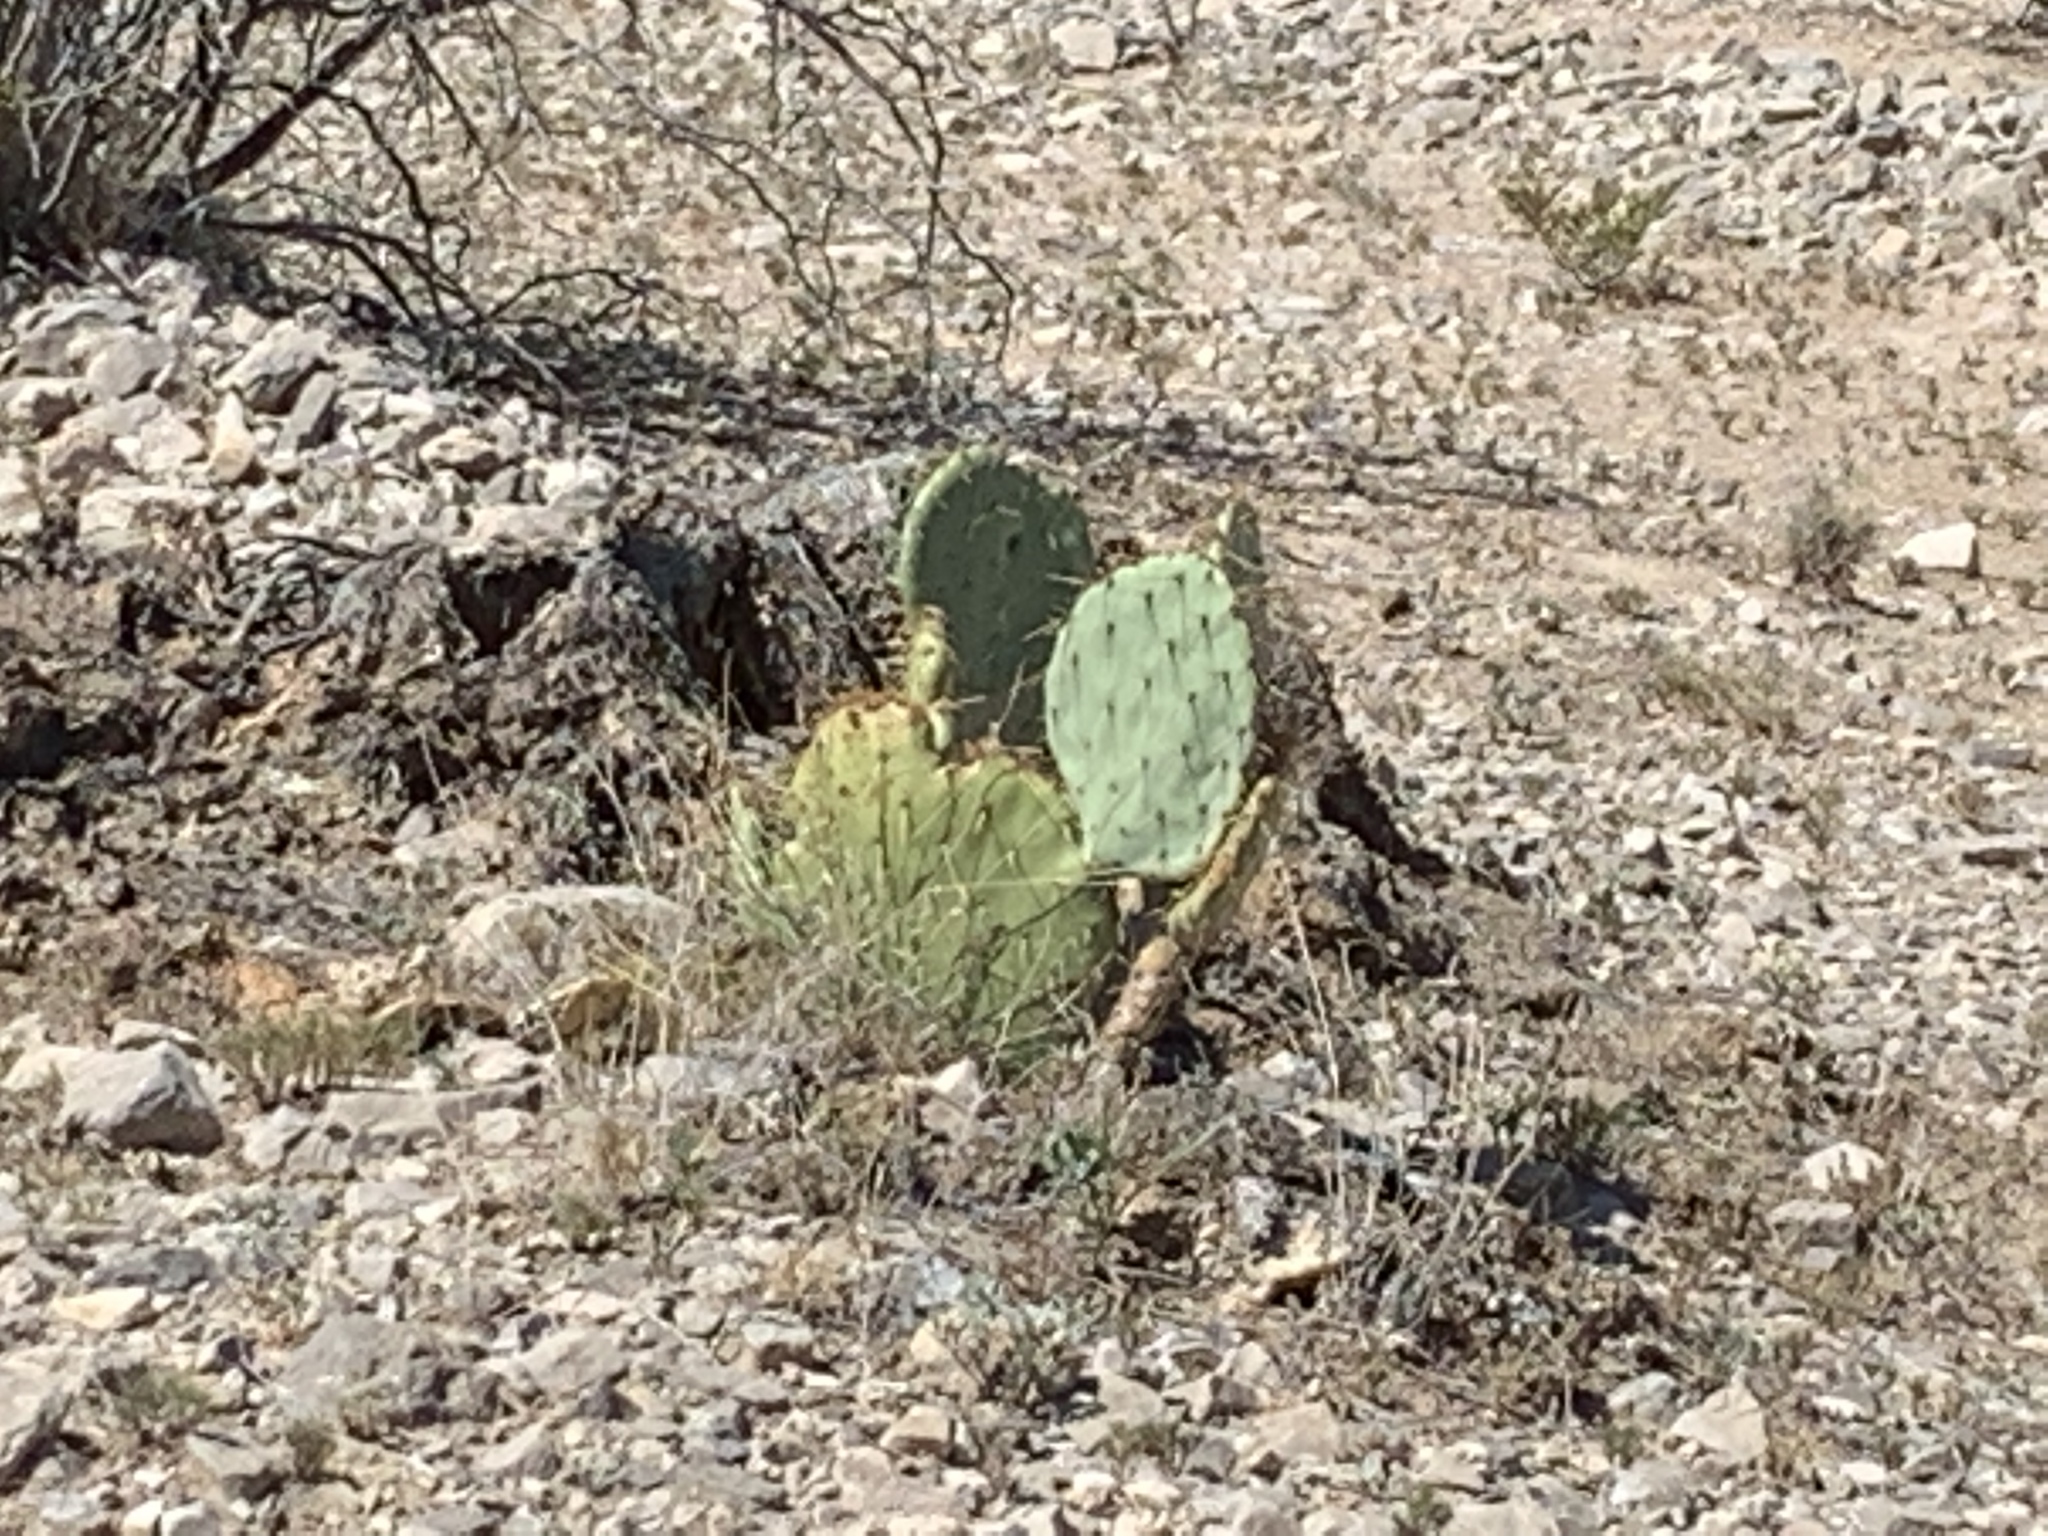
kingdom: Plantae
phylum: Tracheophyta
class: Magnoliopsida
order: Caryophyllales
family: Cactaceae
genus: Opuntia
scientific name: Opuntia engelmannii
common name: Cactus-apple
